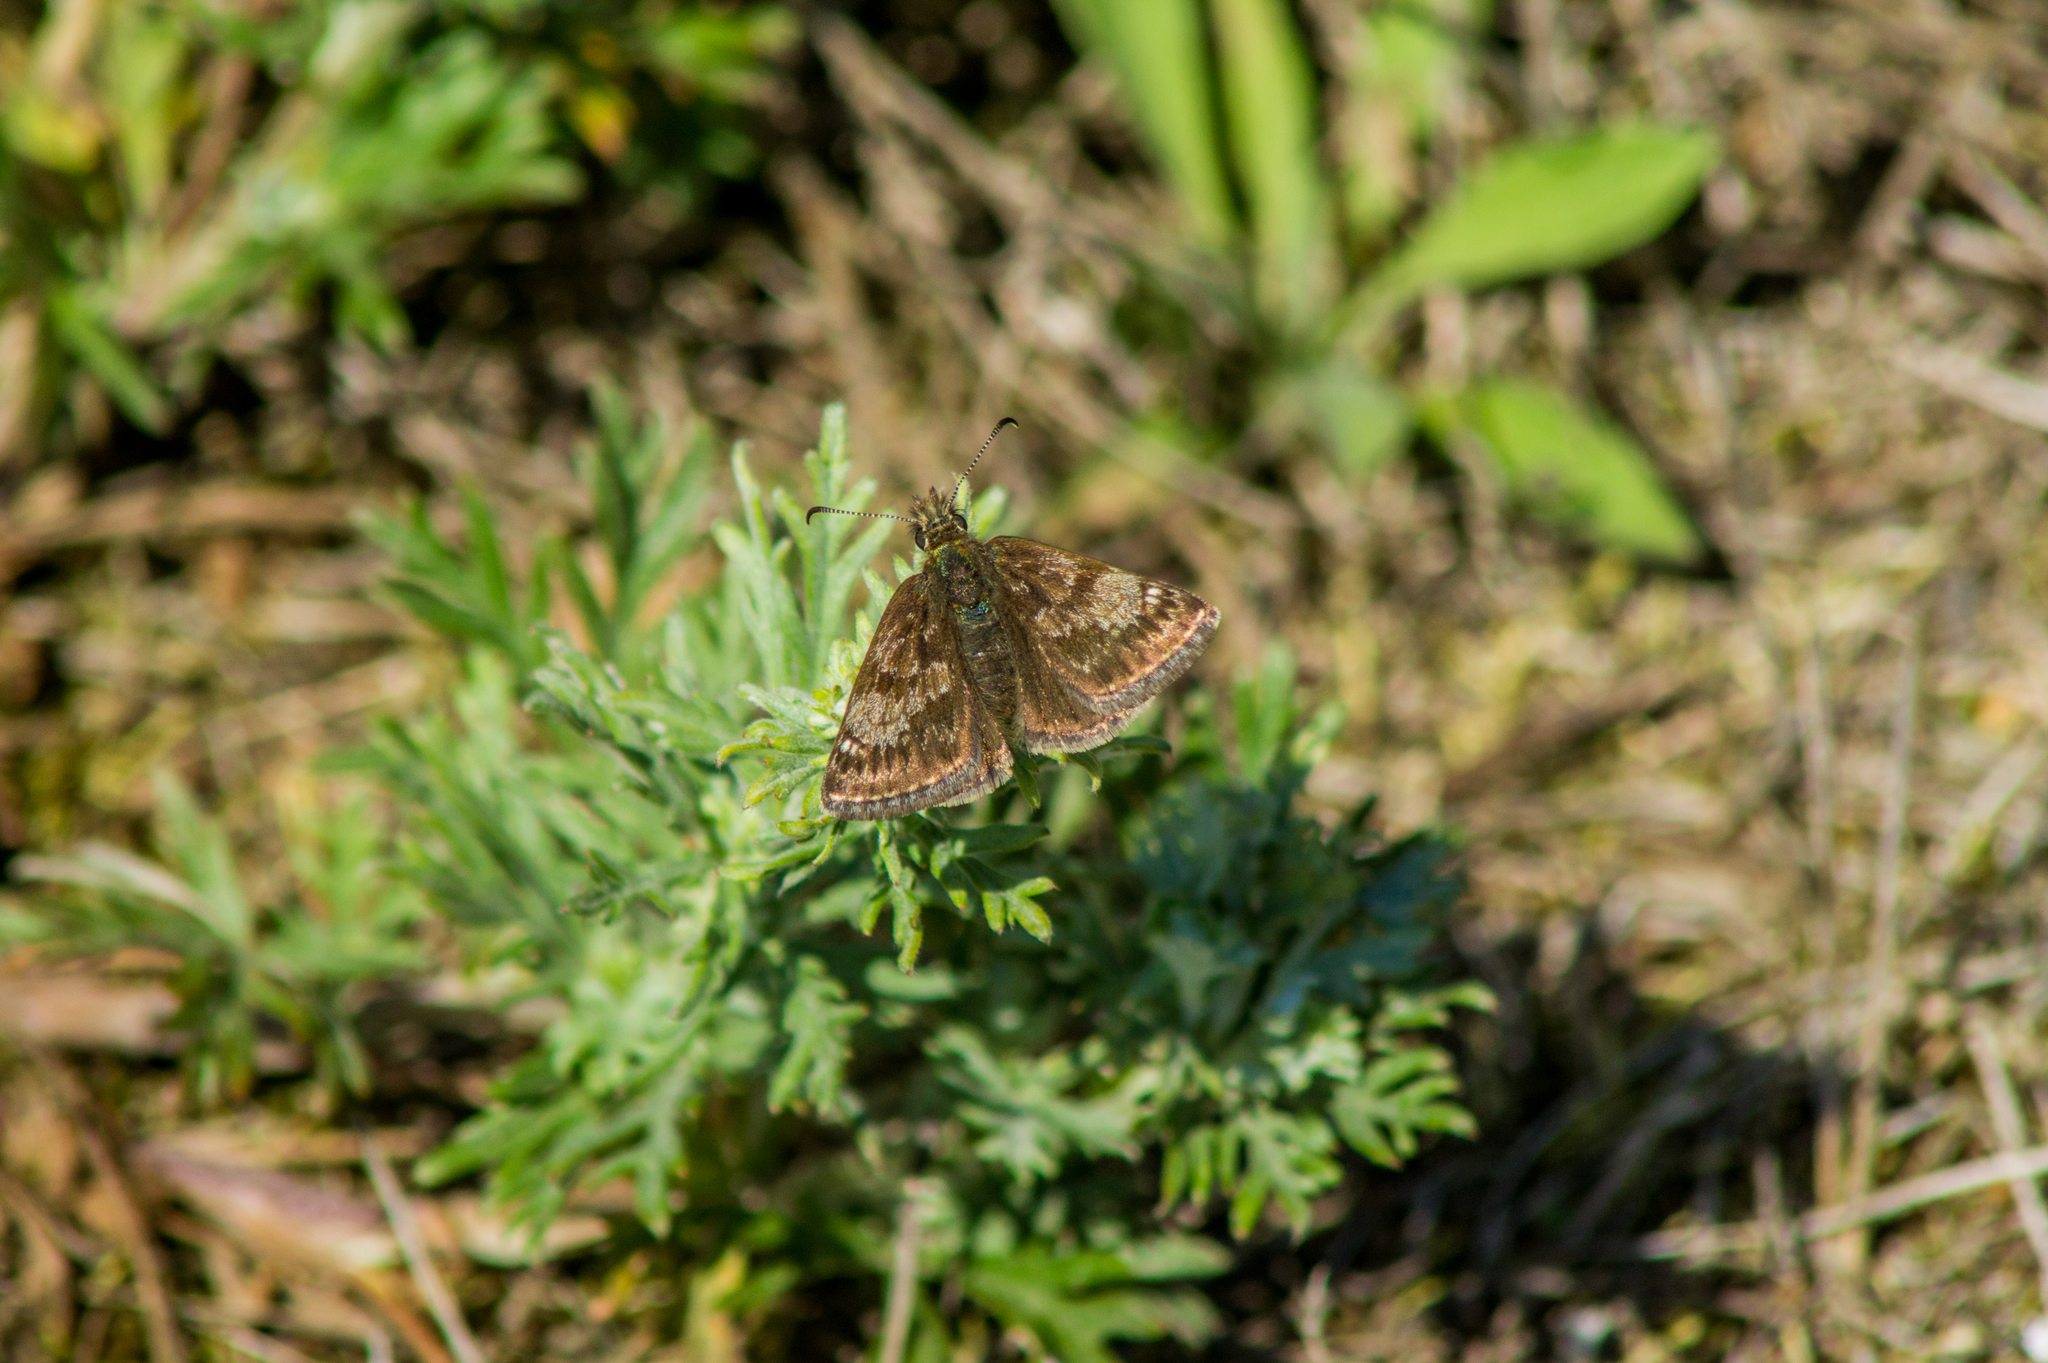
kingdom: Animalia
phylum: Arthropoda
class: Insecta
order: Lepidoptera
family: Hesperiidae
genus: Erynnis
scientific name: Erynnis tages
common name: Dingy skipper
